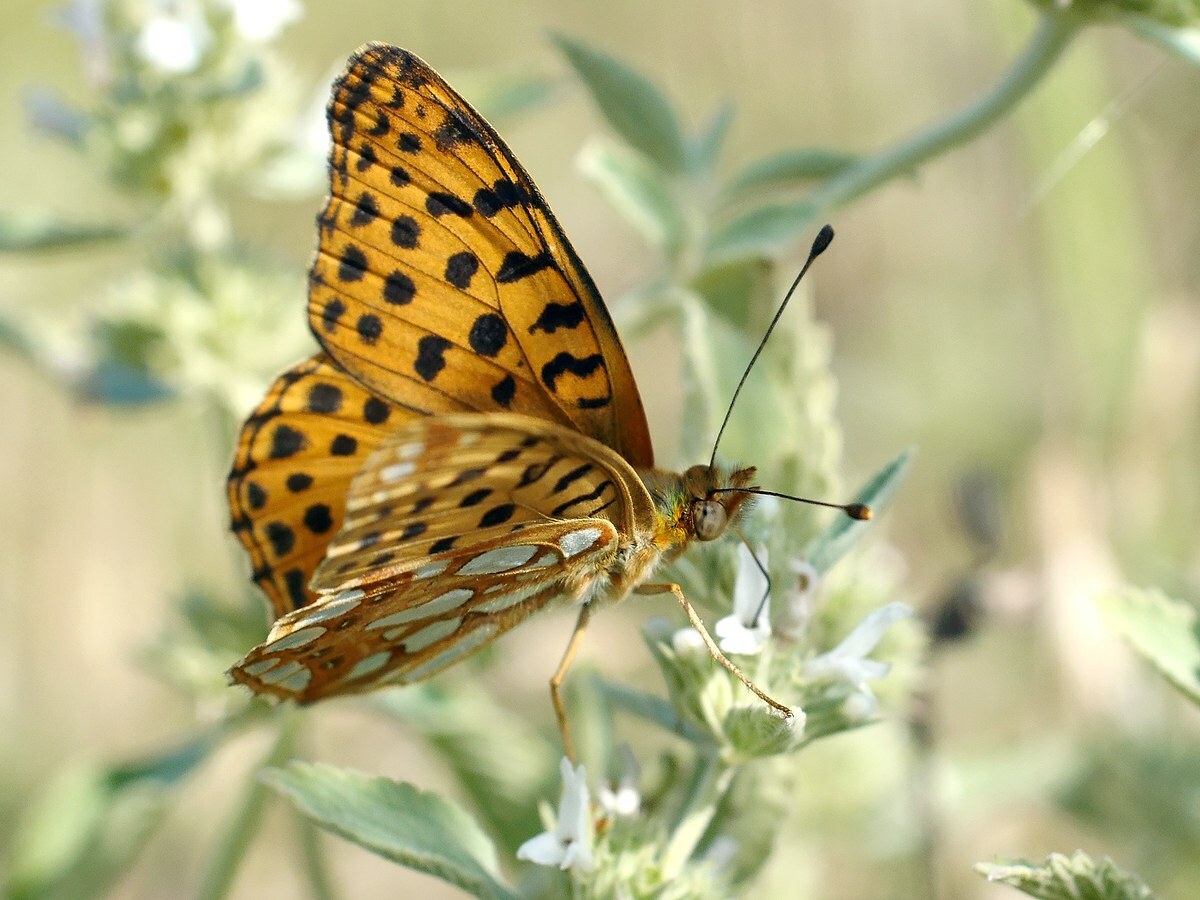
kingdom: Animalia
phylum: Arthropoda
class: Insecta
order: Lepidoptera
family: Nymphalidae
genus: Issoria
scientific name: Issoria lathonia
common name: Queen of spain fritillary
